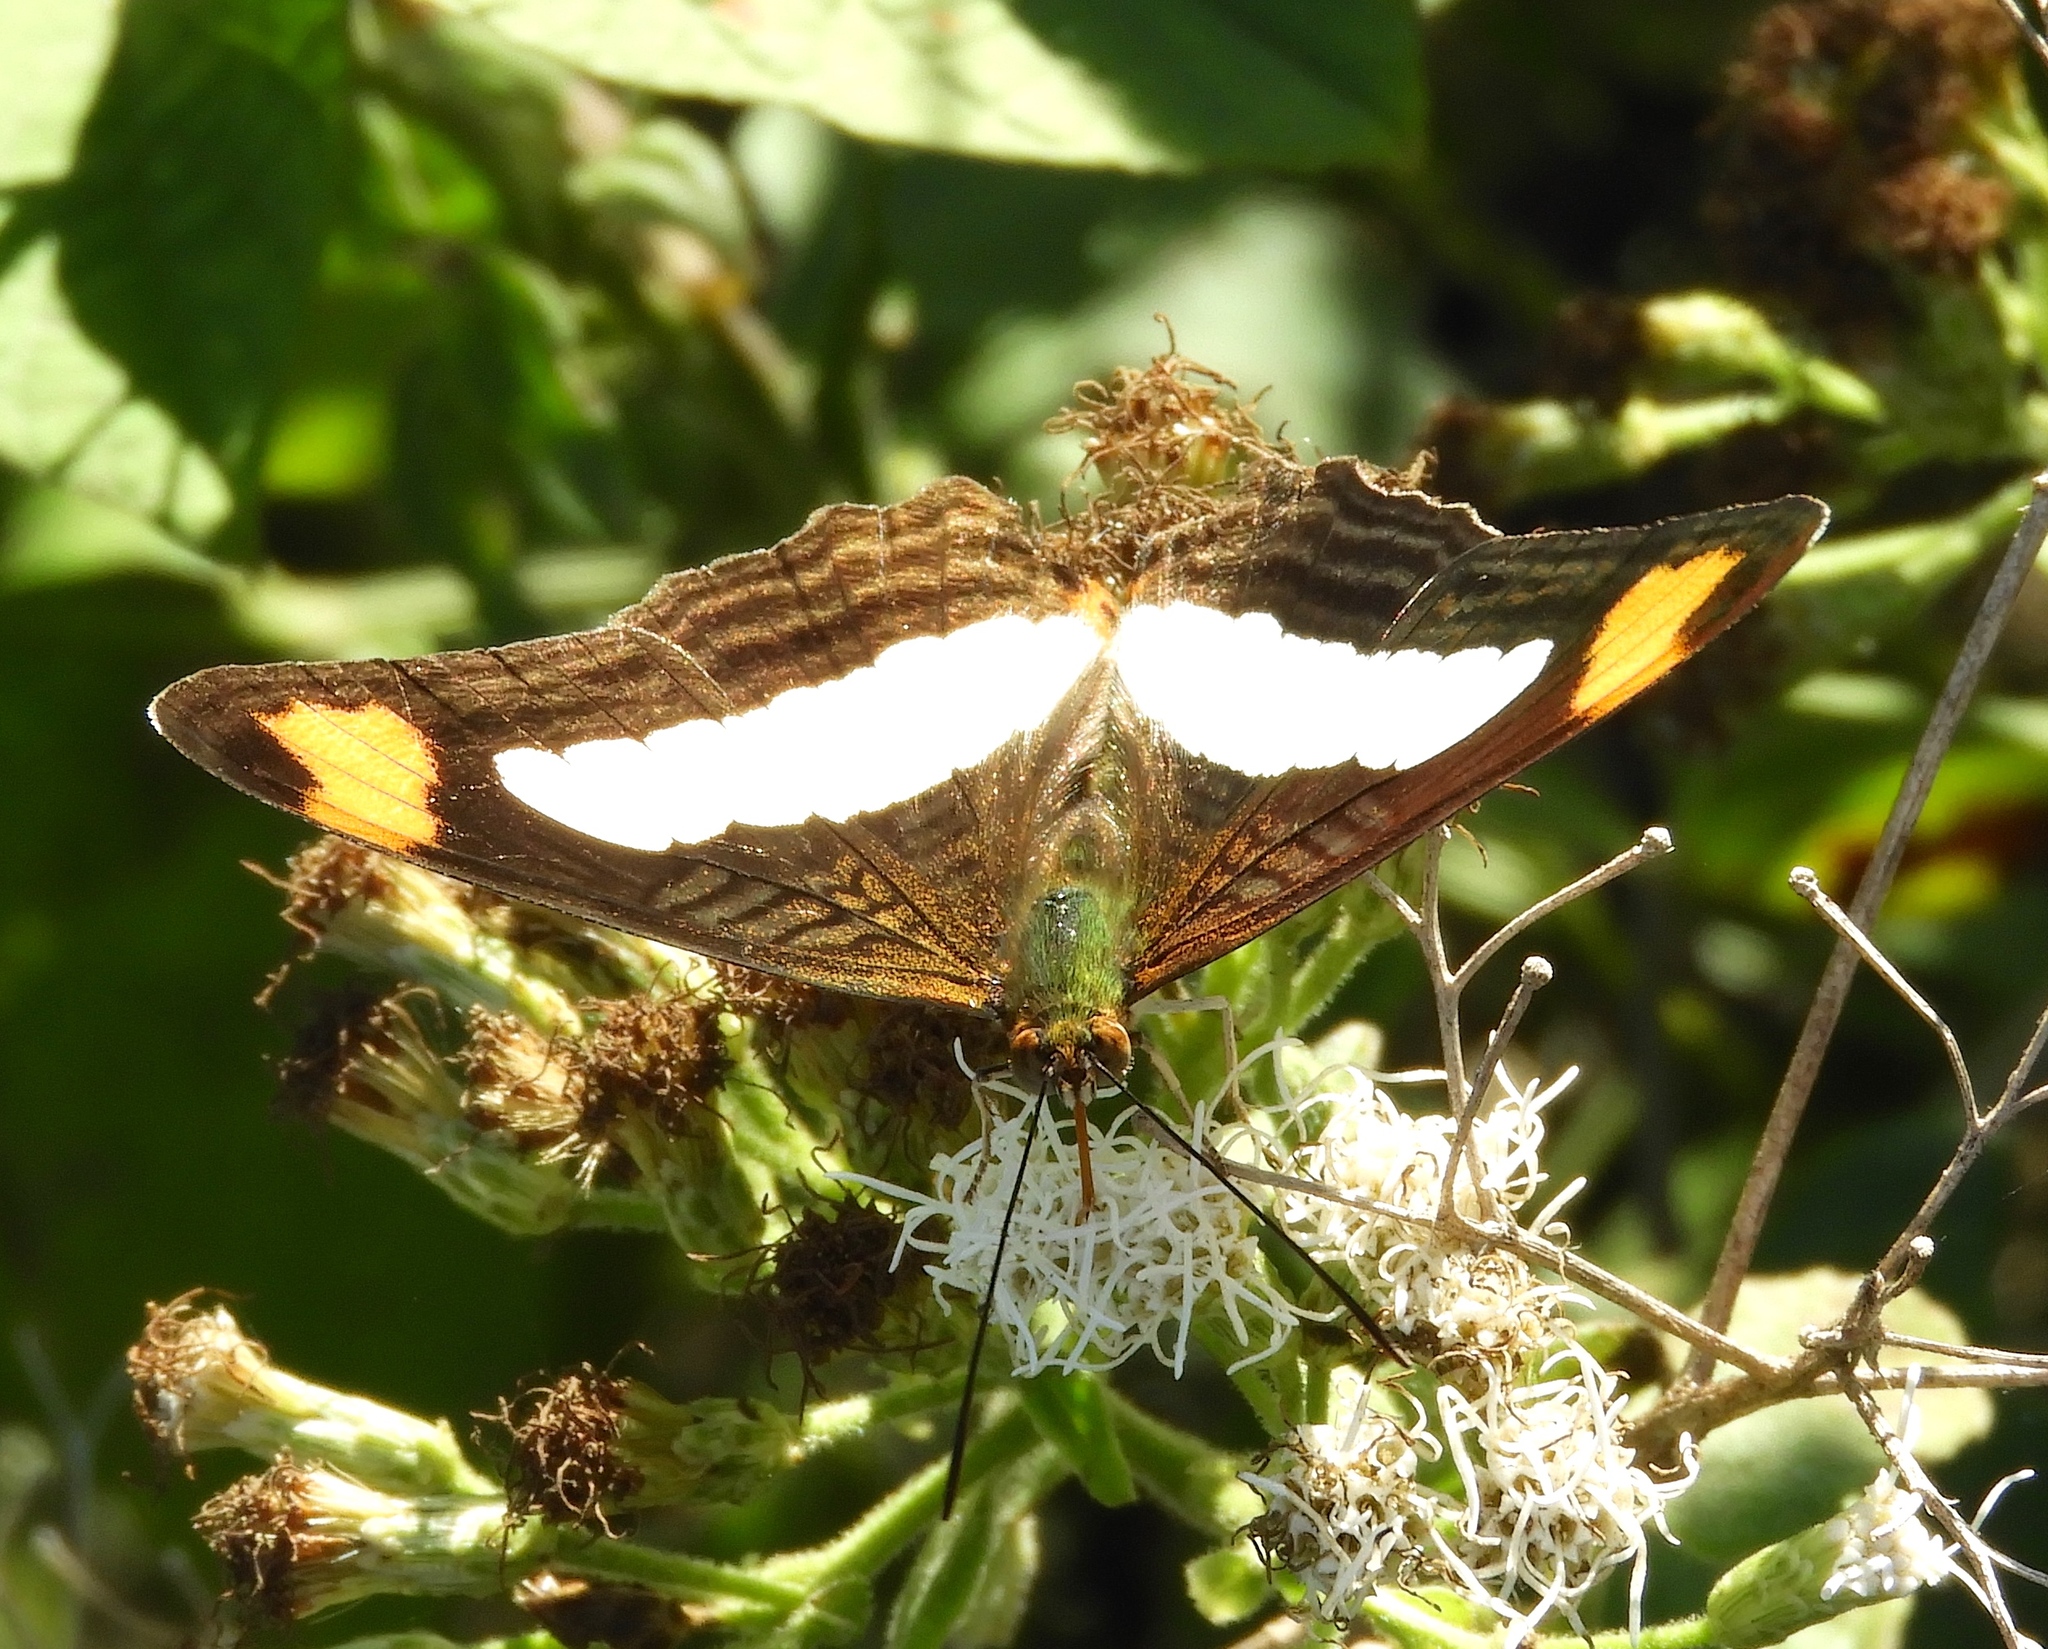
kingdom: Animalia
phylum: Arthropoda
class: Insecta
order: Lepidoptera
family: Nymphalidae
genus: Limenitis
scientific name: Limenitis iphiclus
